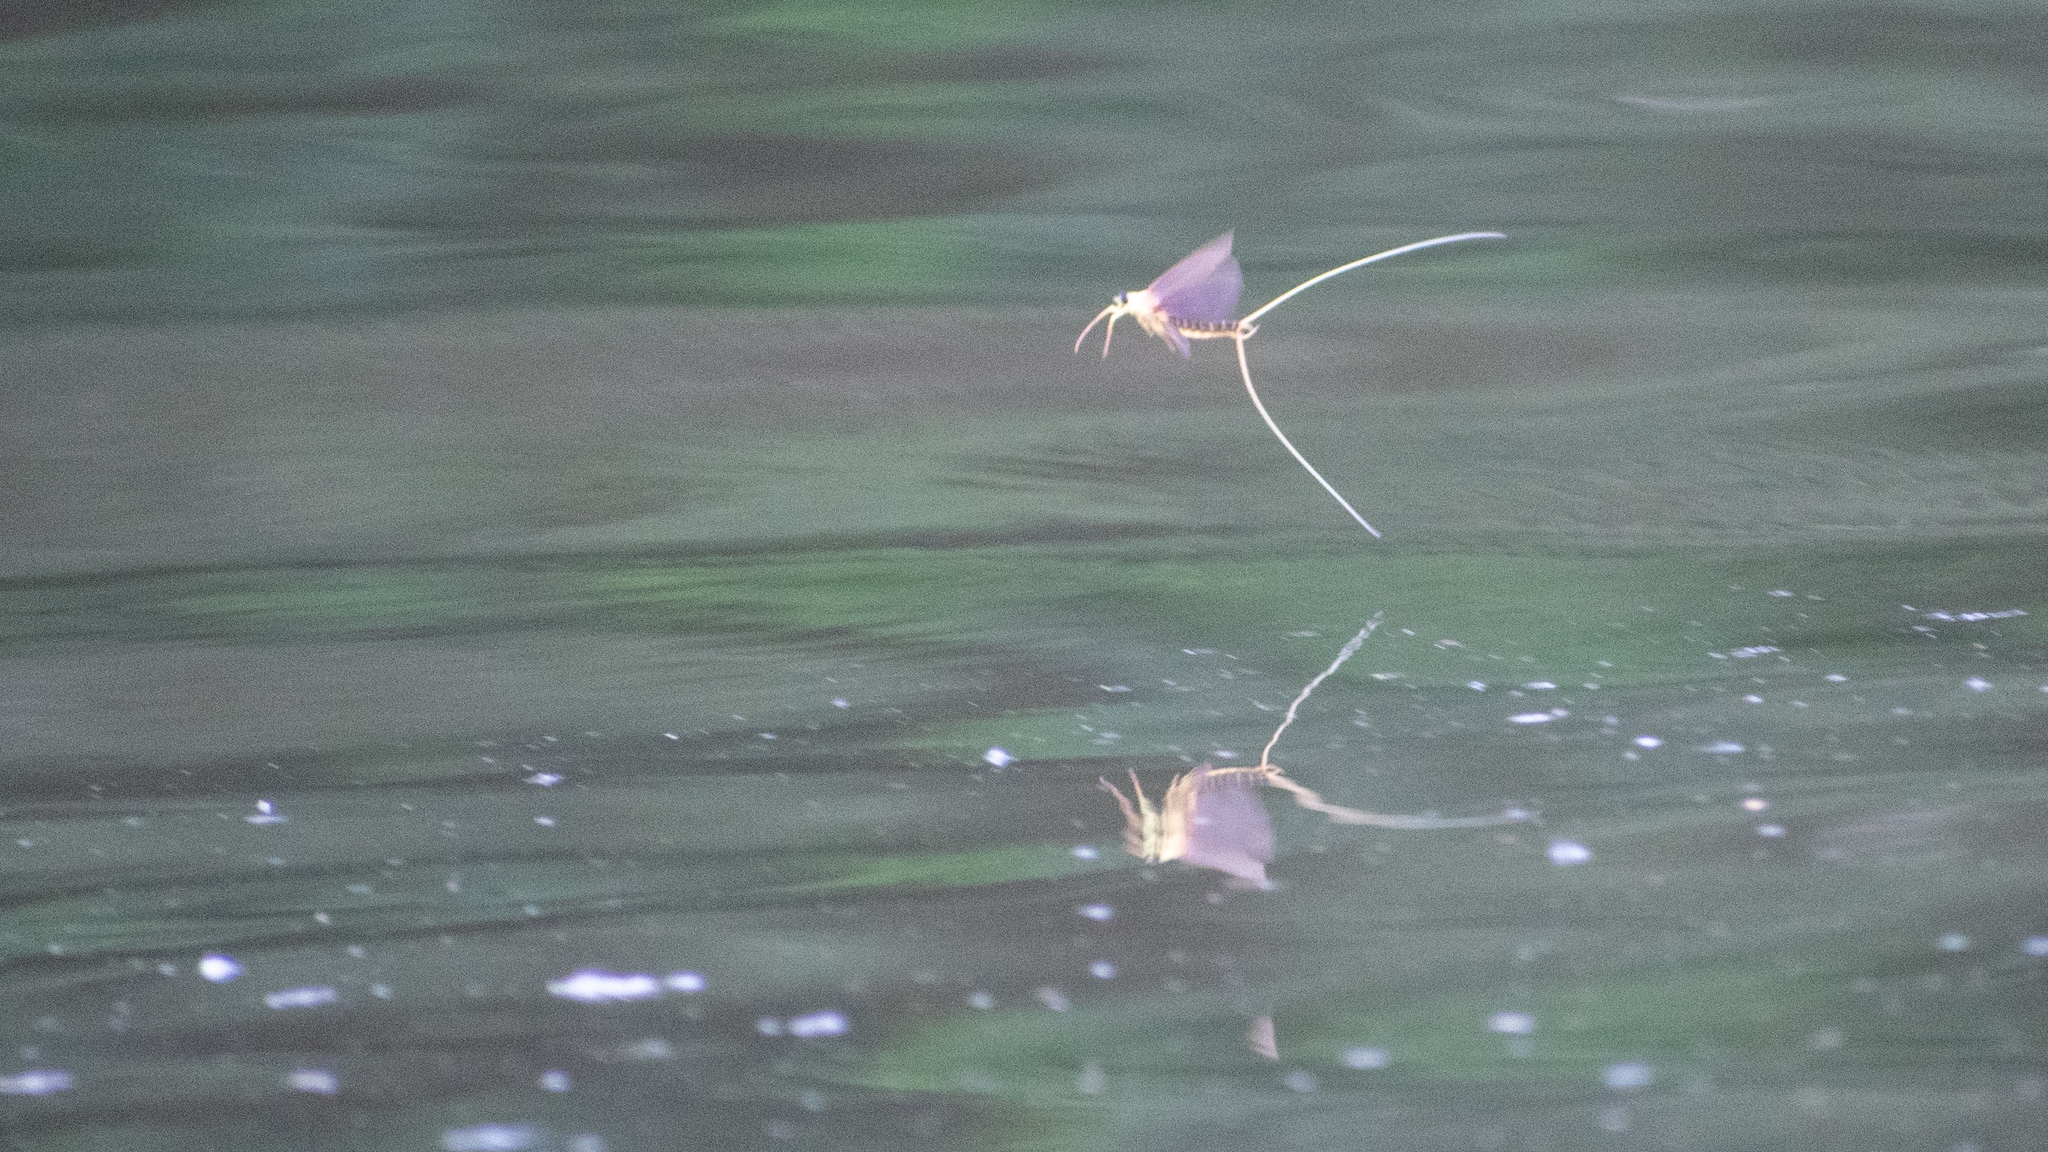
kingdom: Animalia
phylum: Arthropoda
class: Insecta
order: Ephemeroptera
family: Palingeniidae
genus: Palingenia
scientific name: Palingenia longicauda
